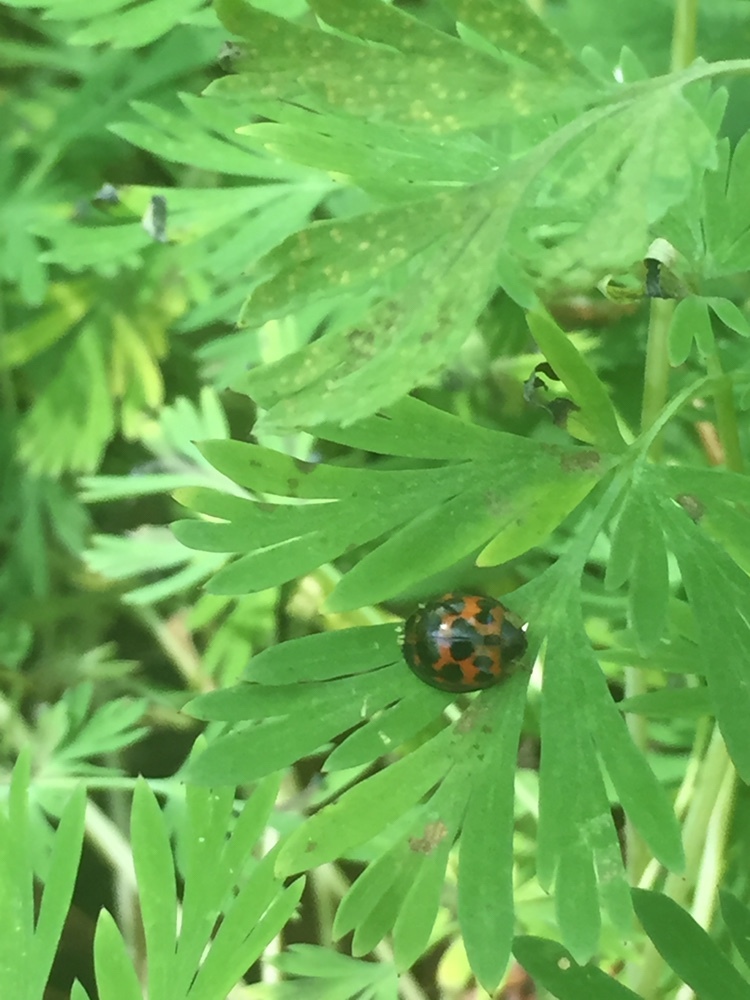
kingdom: Animalia
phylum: Arthropoda
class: Insecta
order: Coleoptera
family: Coccinellidae
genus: Harmonia
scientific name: Harmonia axyridis
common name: Harlequin ladybird
